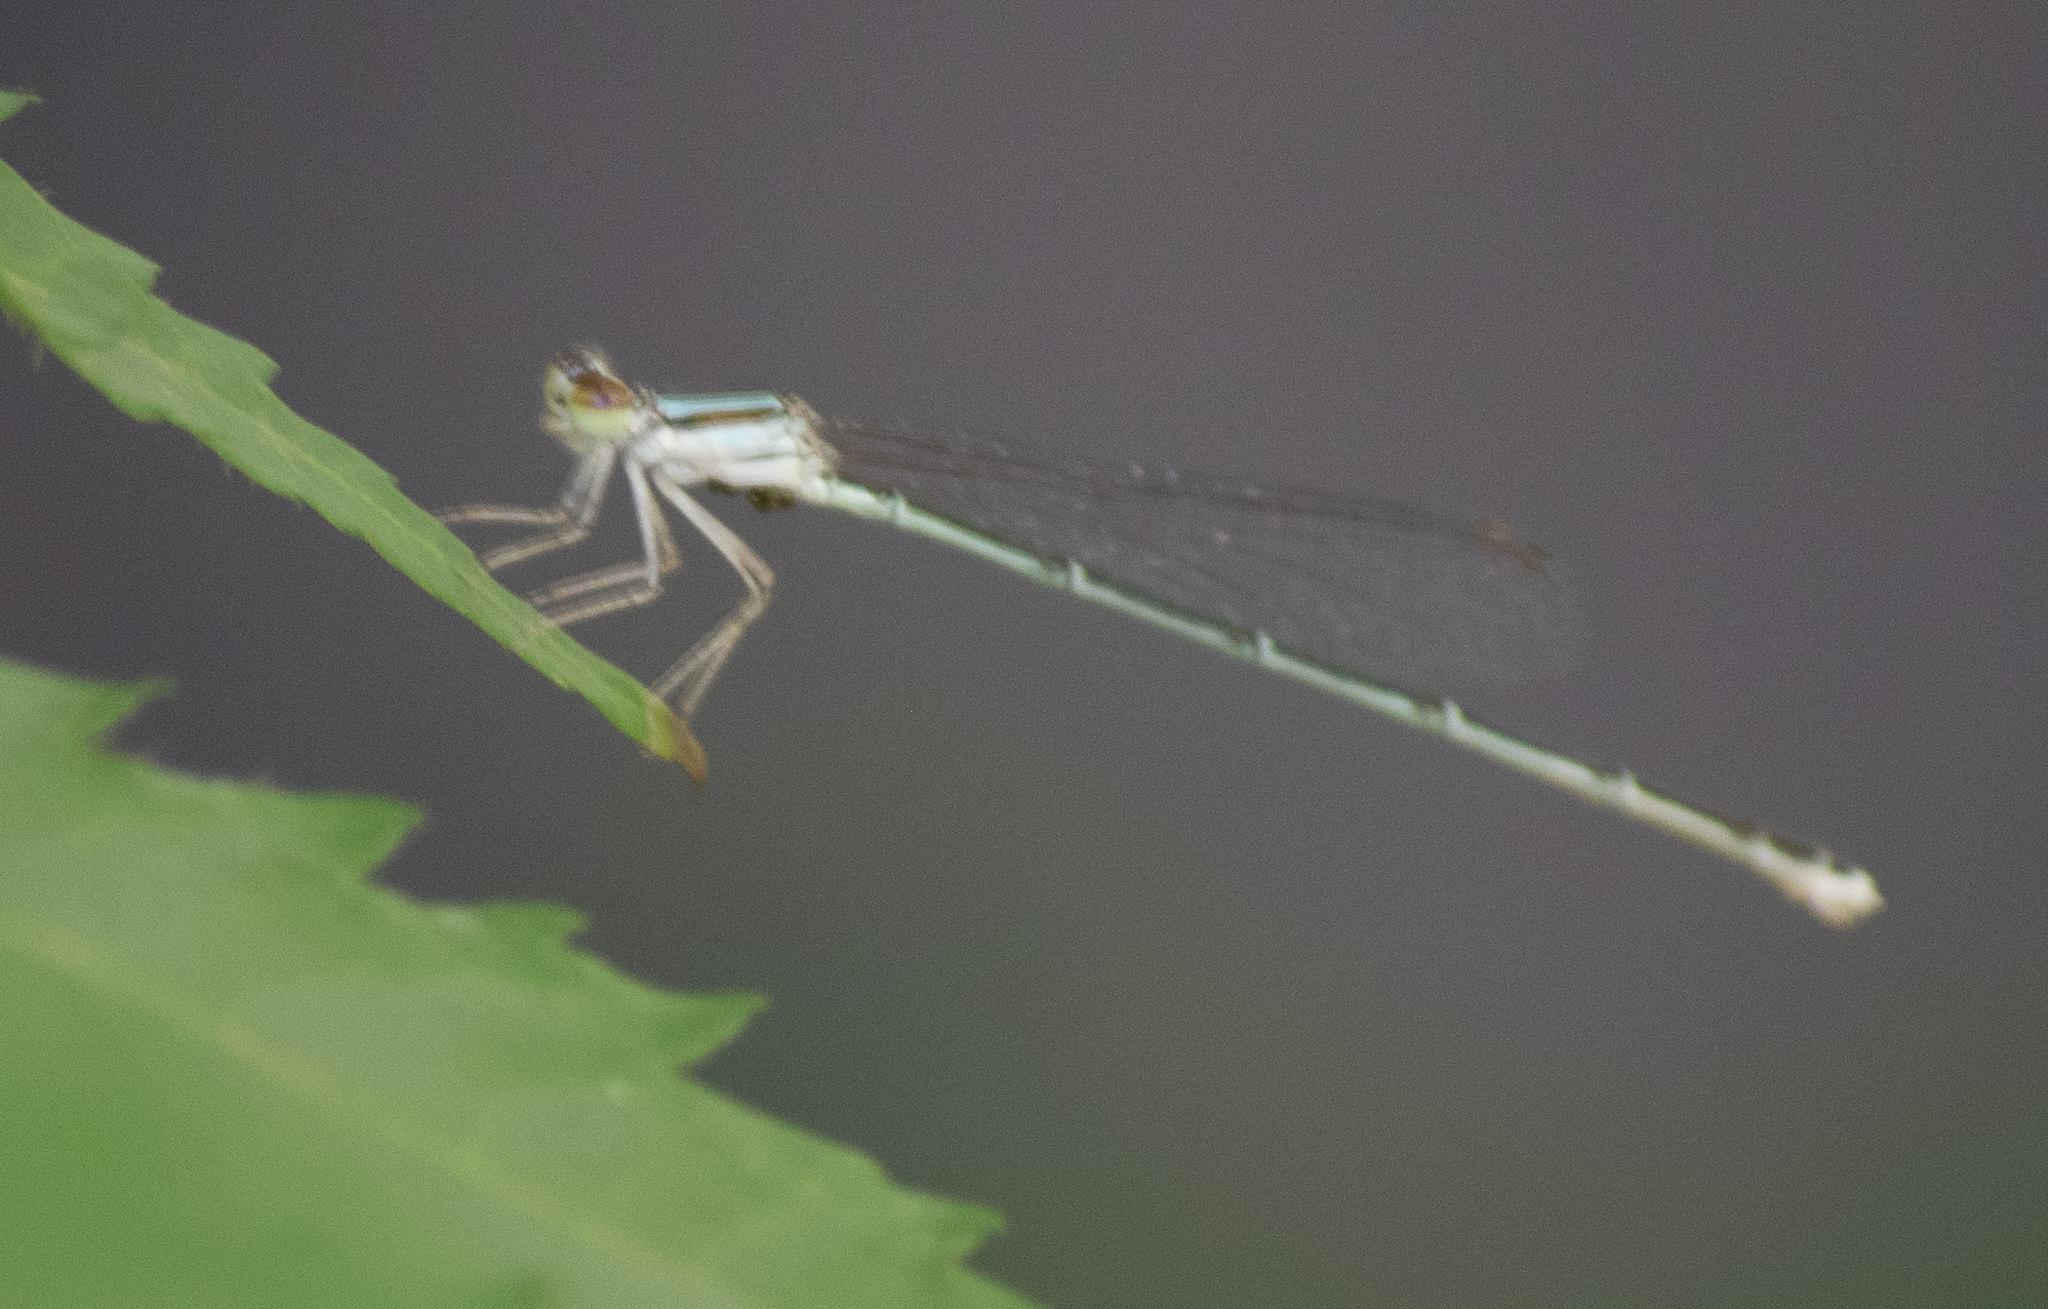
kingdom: Animalia
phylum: Arthropoda
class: Insecta
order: Odonata
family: Coenagrionidae
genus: Enallagma
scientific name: Enallagma pollutum
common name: Florida bluet
